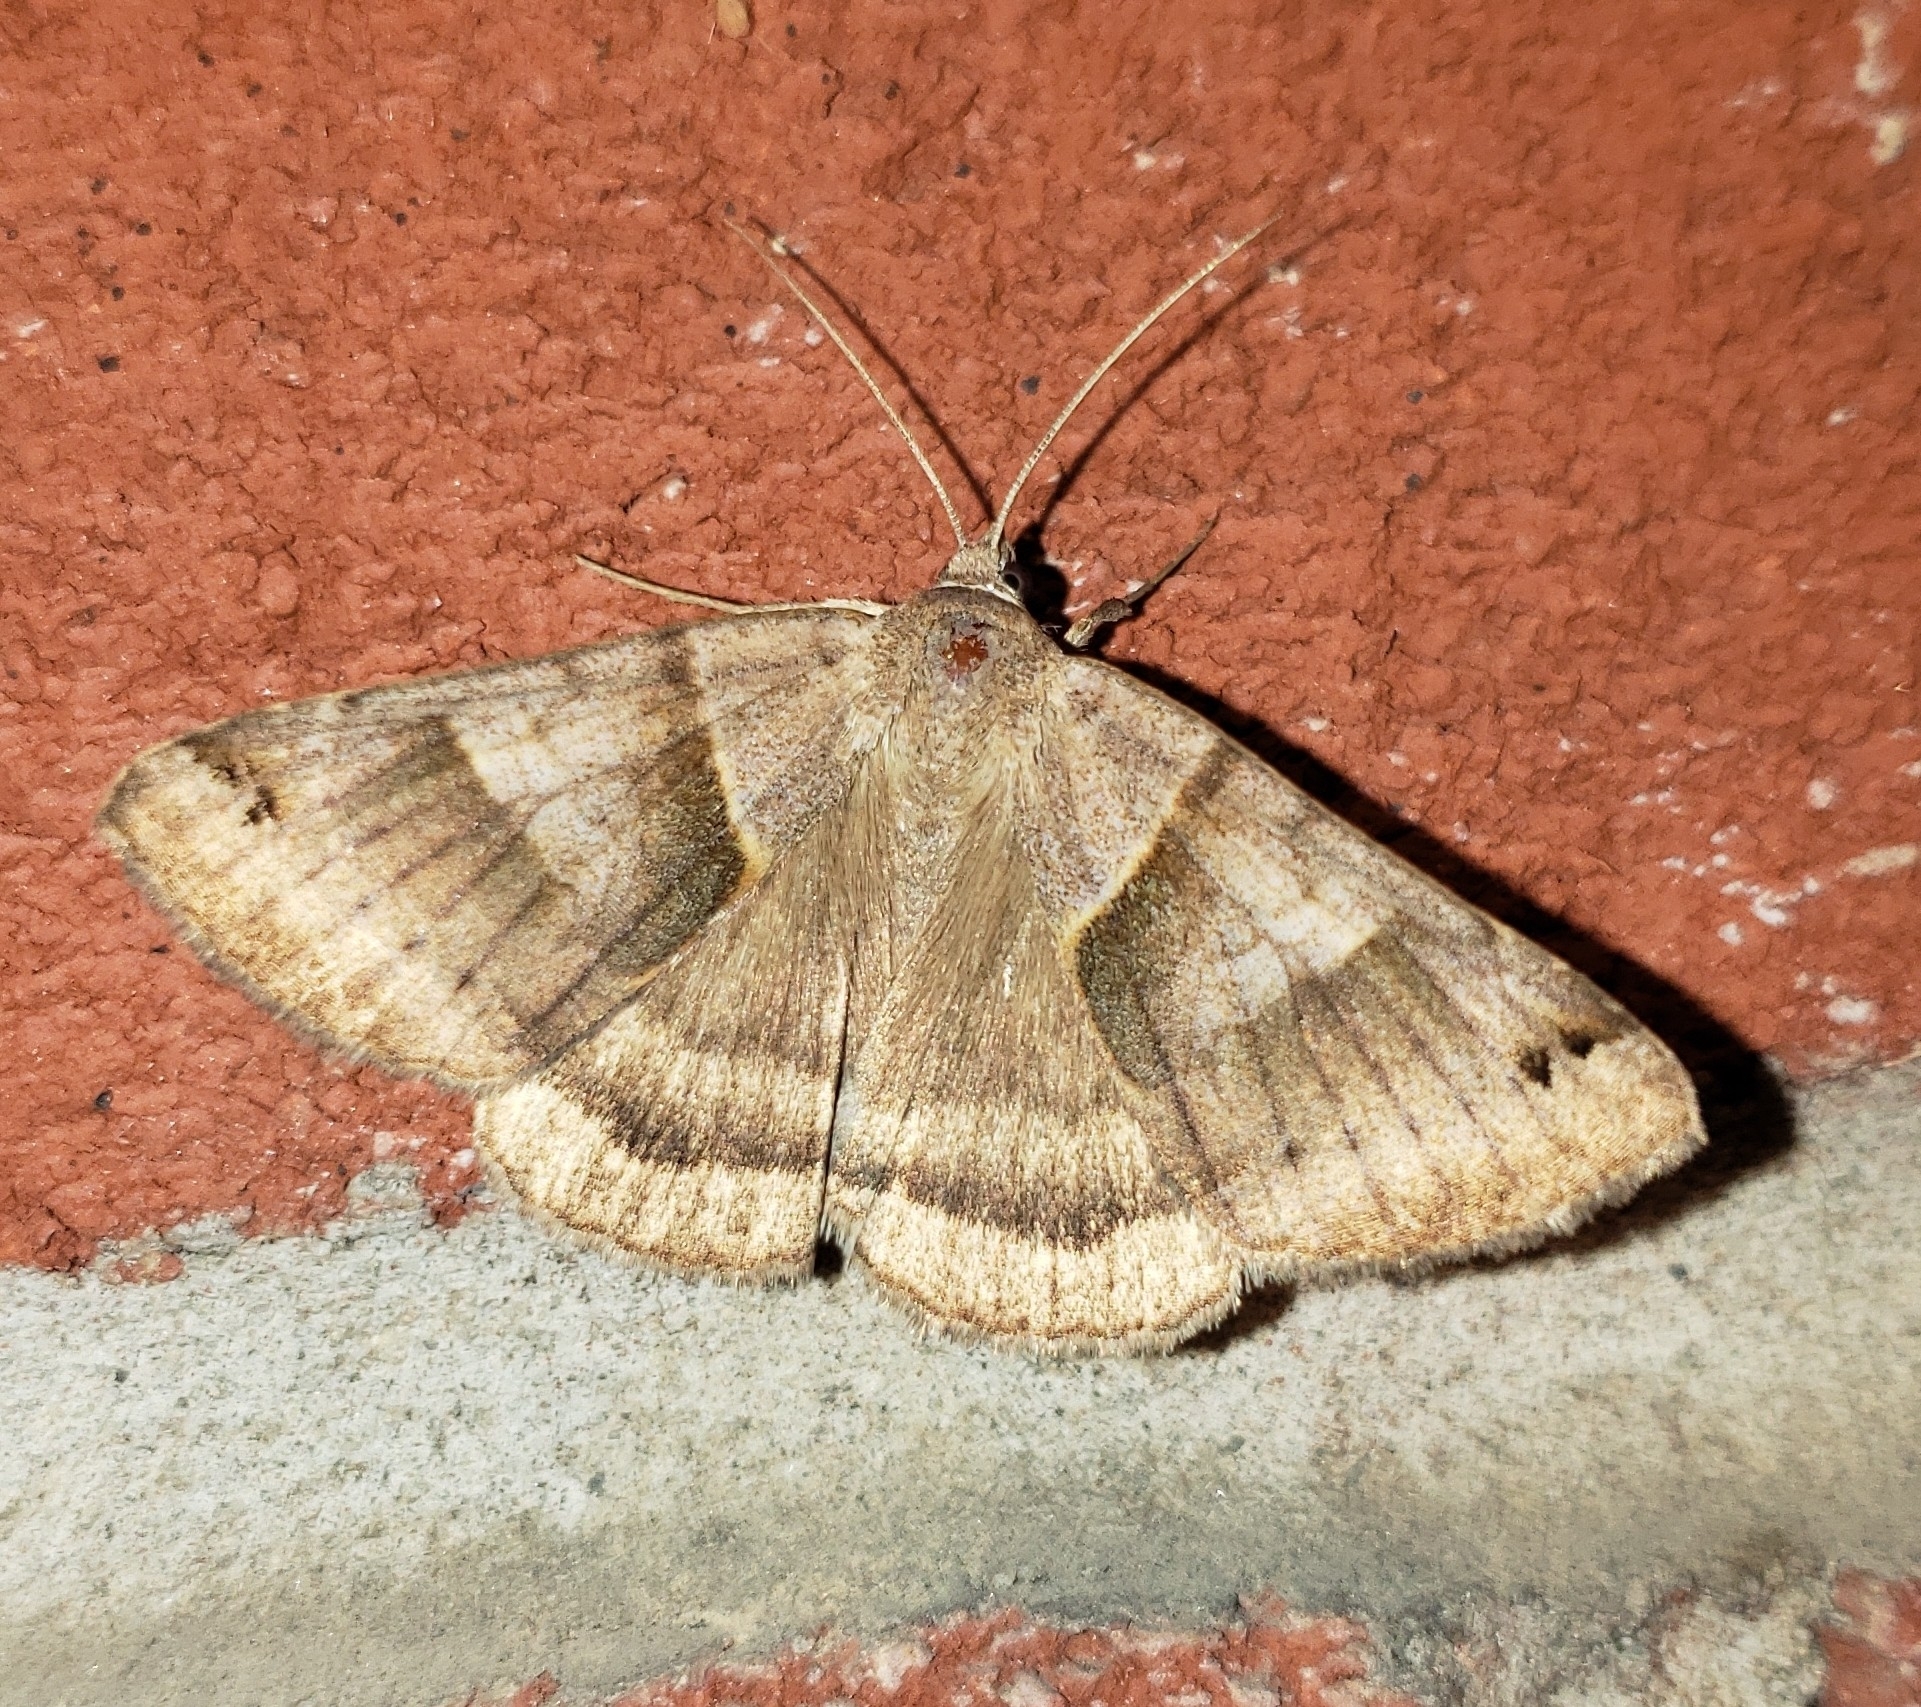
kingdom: Animalia
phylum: Arthropoda
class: Insecta
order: Lepidoptera
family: Erebidae
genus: Caenurgina
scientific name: Caenurgina crassiuscula
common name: Double-barred
